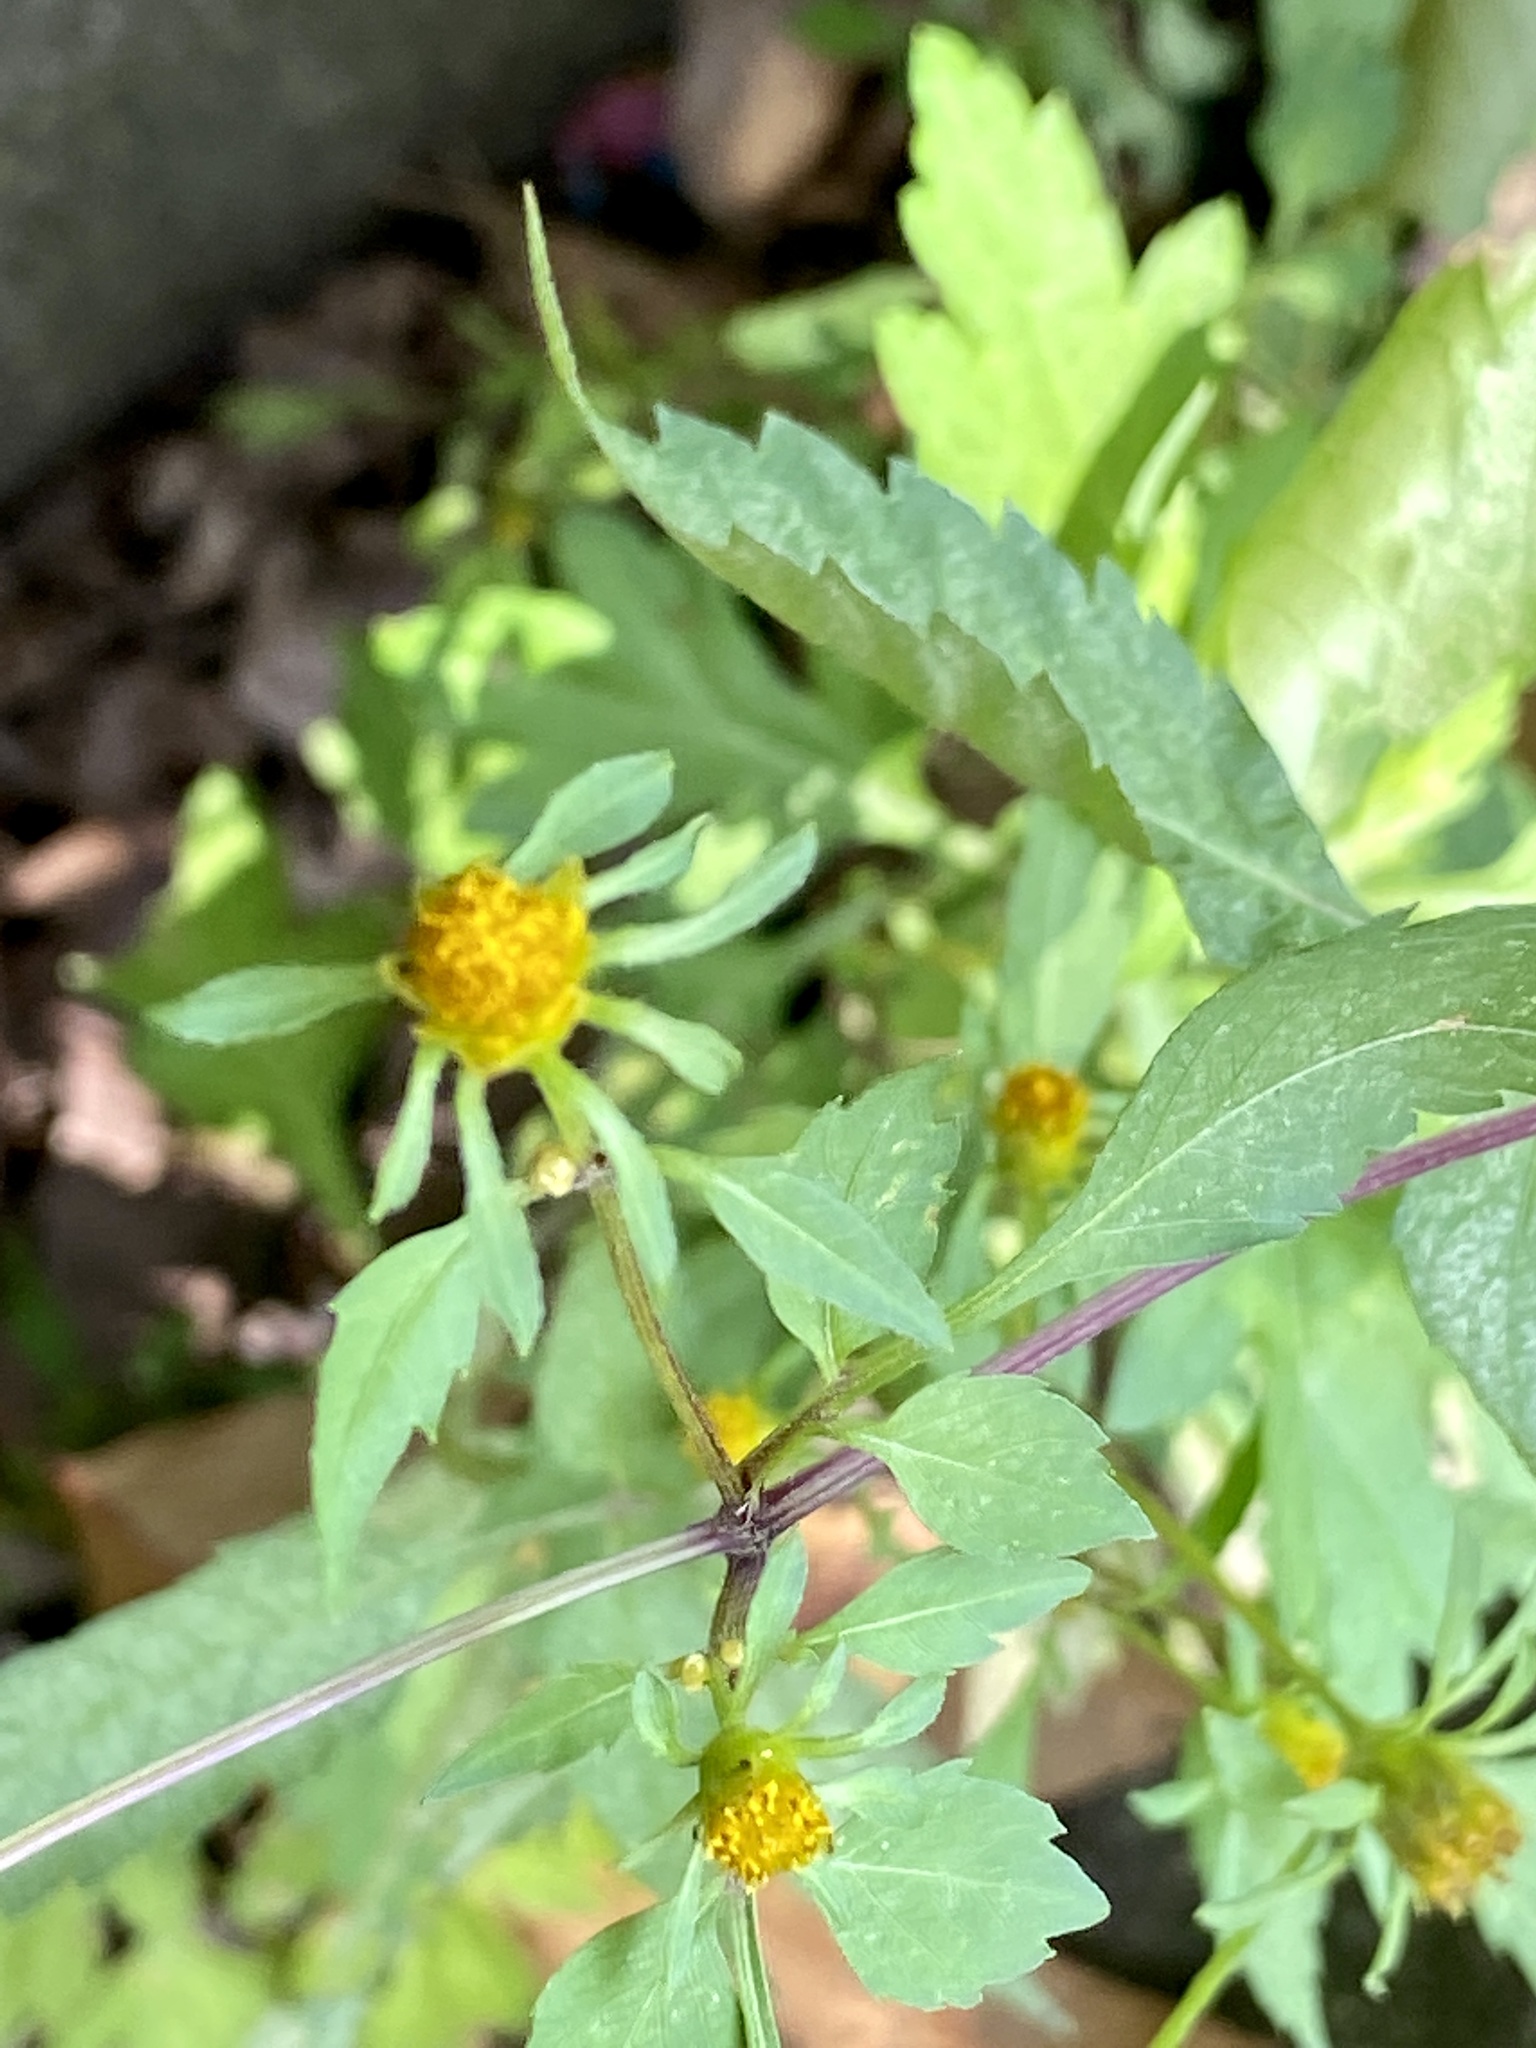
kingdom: Plantae
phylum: Tracheophyta
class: Magnoliopsida
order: Asterales
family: Asteraceae
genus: Bidens
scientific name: Bidens frondosa
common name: Beggarticks
